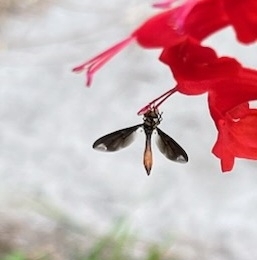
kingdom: Animalia
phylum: Arthropoda
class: Insecta
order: Diptera
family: Syrphidae
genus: Ocyptamus
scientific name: Ocyptamus fuscipennis
